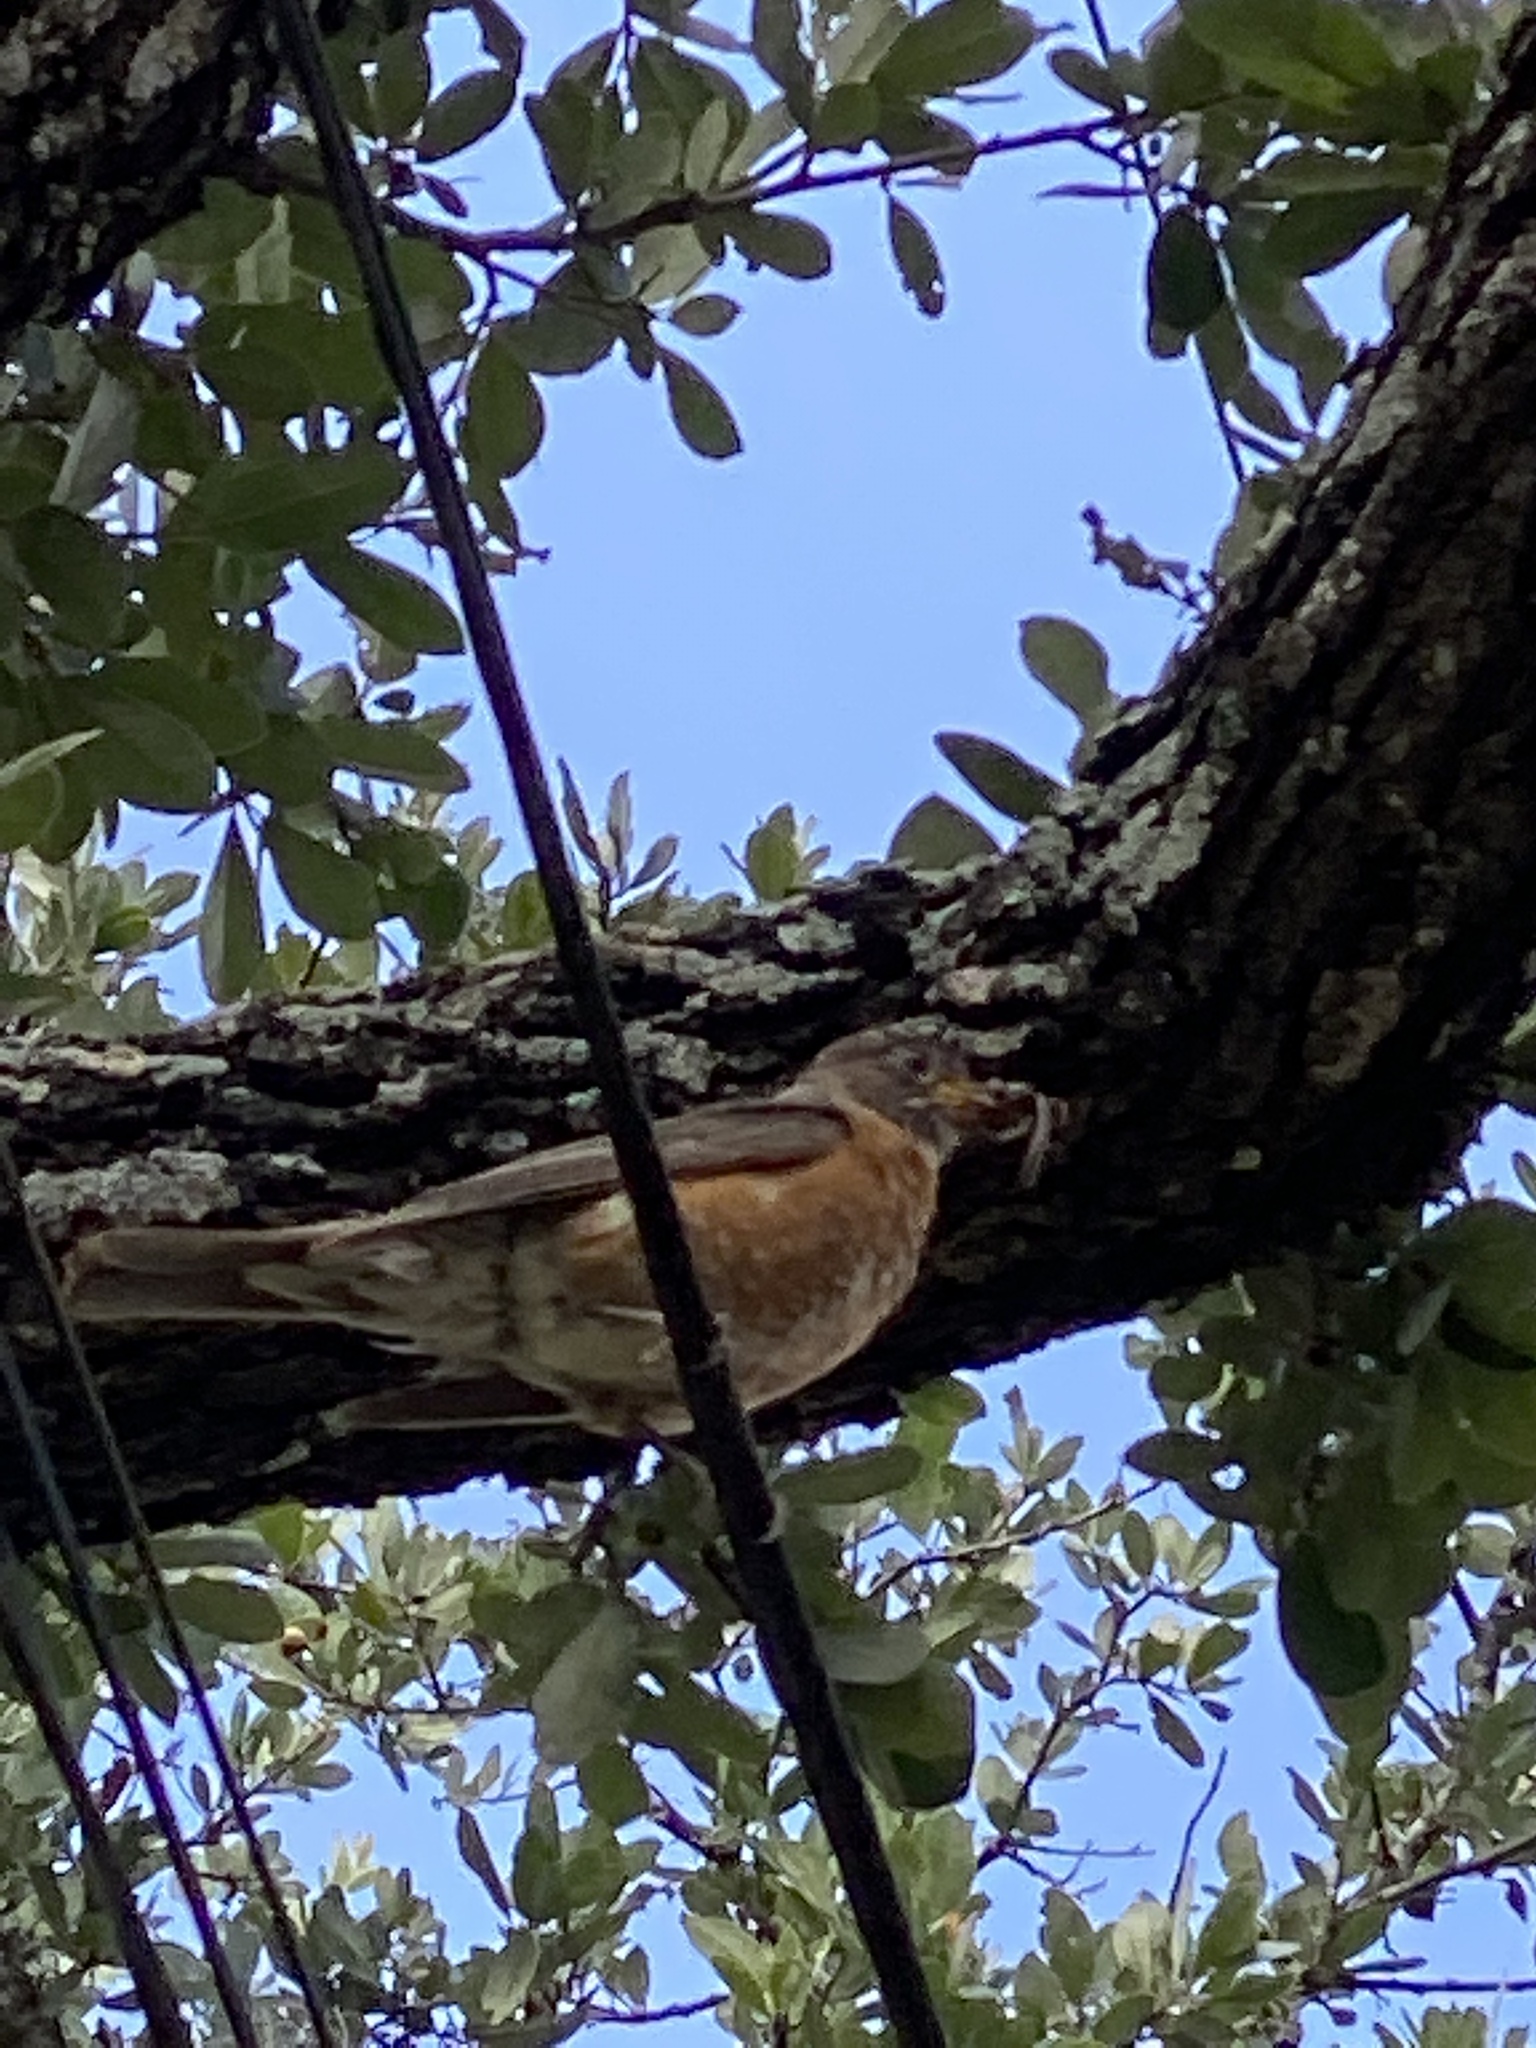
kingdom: Animalia
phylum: Chordata
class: Aves
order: Passeriformes
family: Turdidae
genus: Turdus
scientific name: Turdus migratorius
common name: American robin
